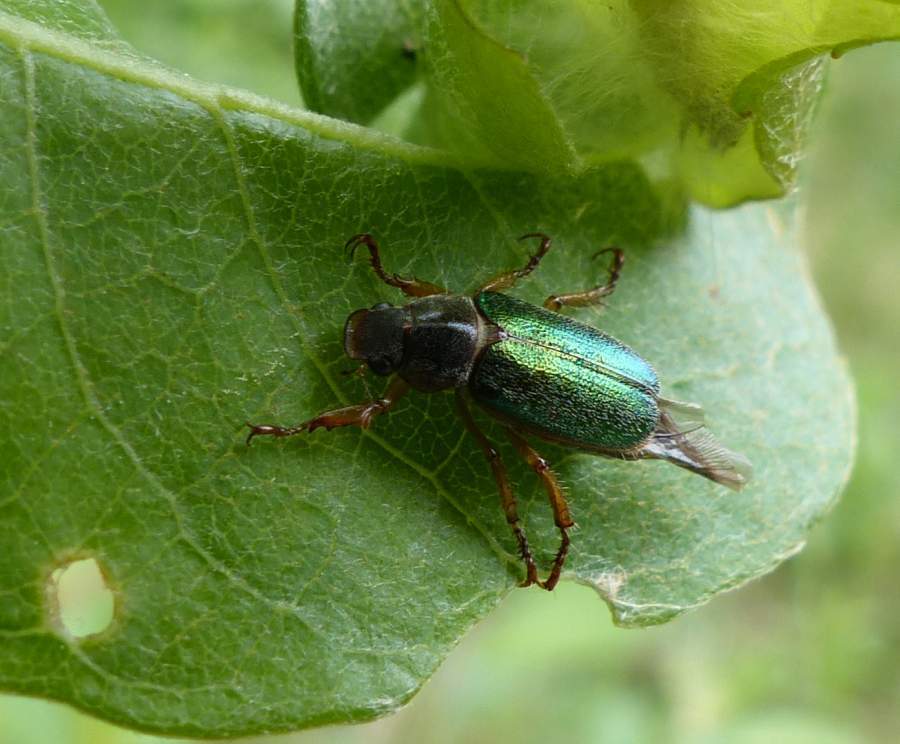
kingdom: Animalia
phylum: Arthropoda
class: Insecta
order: Coleoptera
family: Scarabaeidae
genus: Dichelonyx
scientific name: Dichelonyx canadensis
